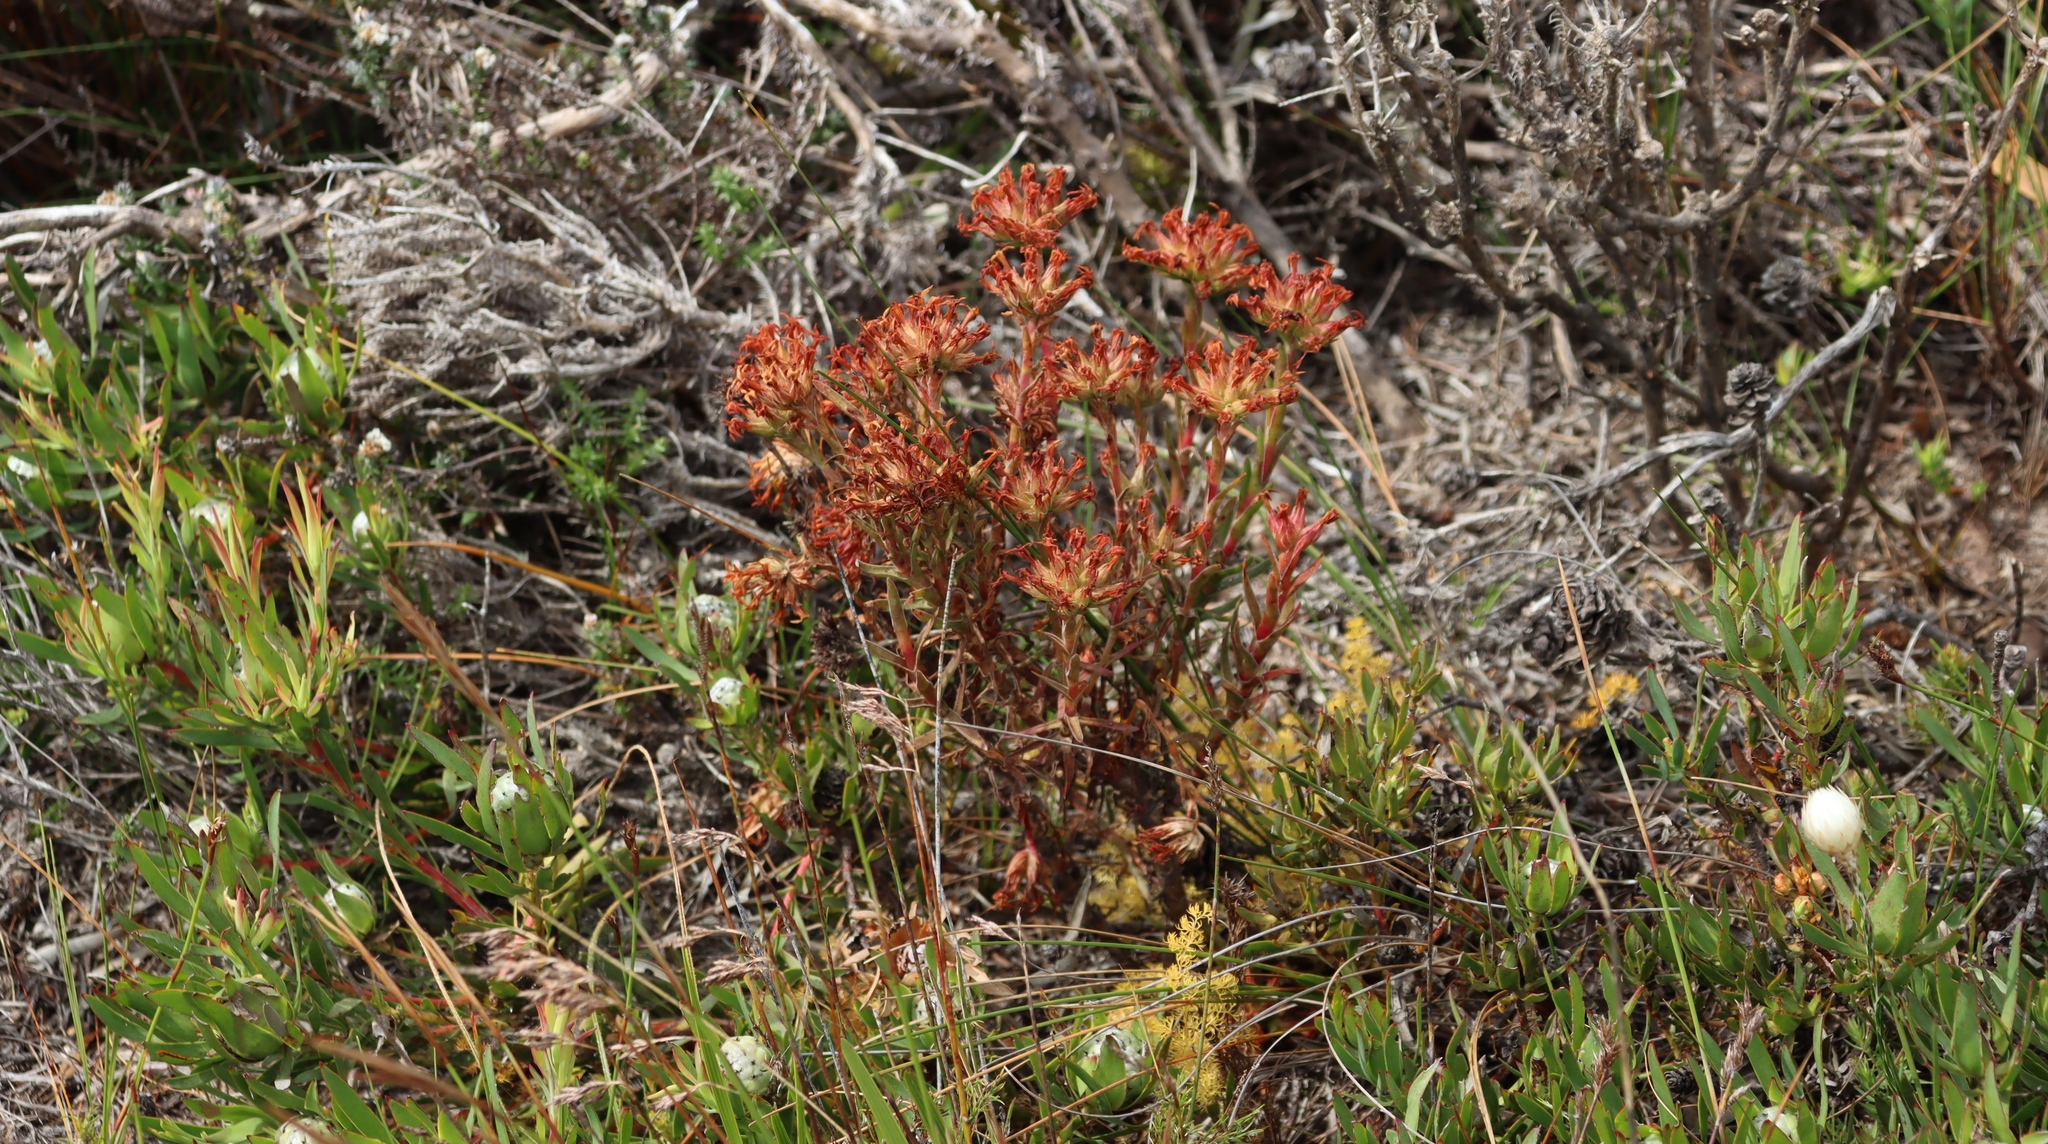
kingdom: Plantae
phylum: Tracheophyta
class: Magnoliopsida
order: Saxifragales
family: Crassulaceae
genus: Crassula
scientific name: Crassula fascicularis
